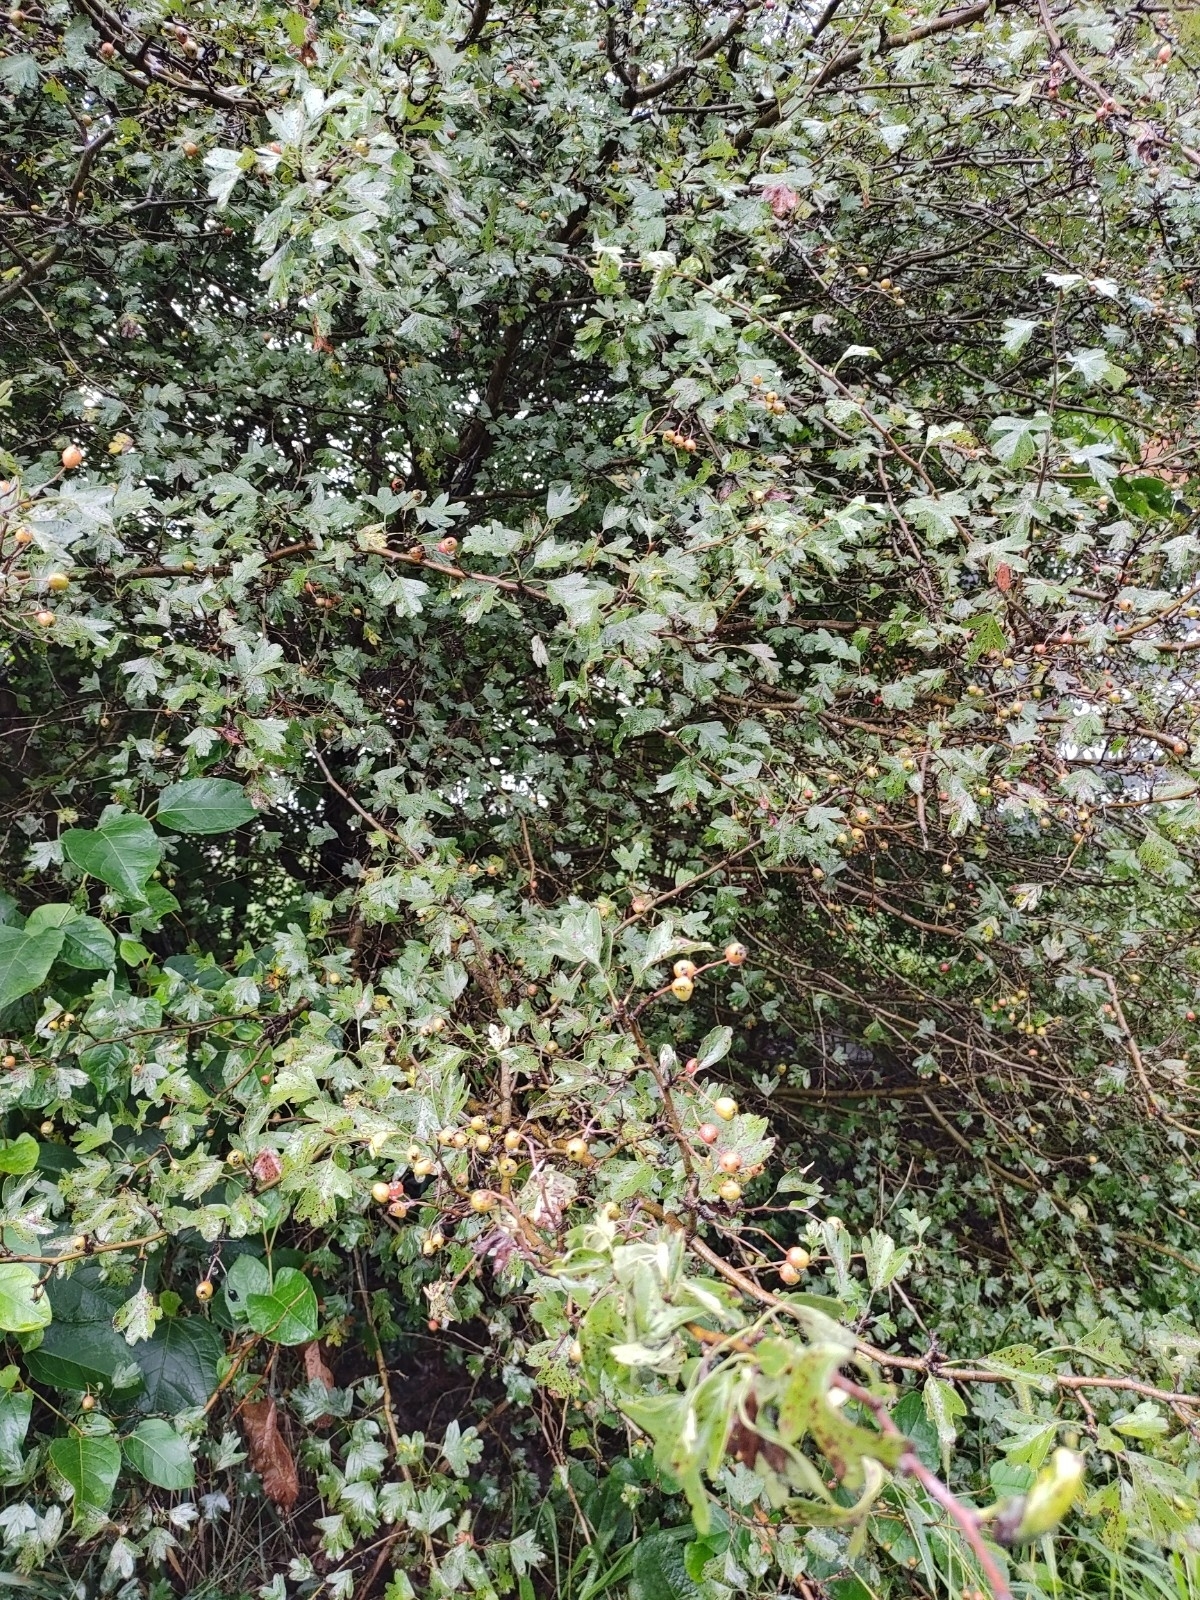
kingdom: Plantae
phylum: Tracheophyta
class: Magnoliopsida
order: Rosales
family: Rosaceae
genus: Crataegus
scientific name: Crataegus monogyna
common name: Hawthorn
